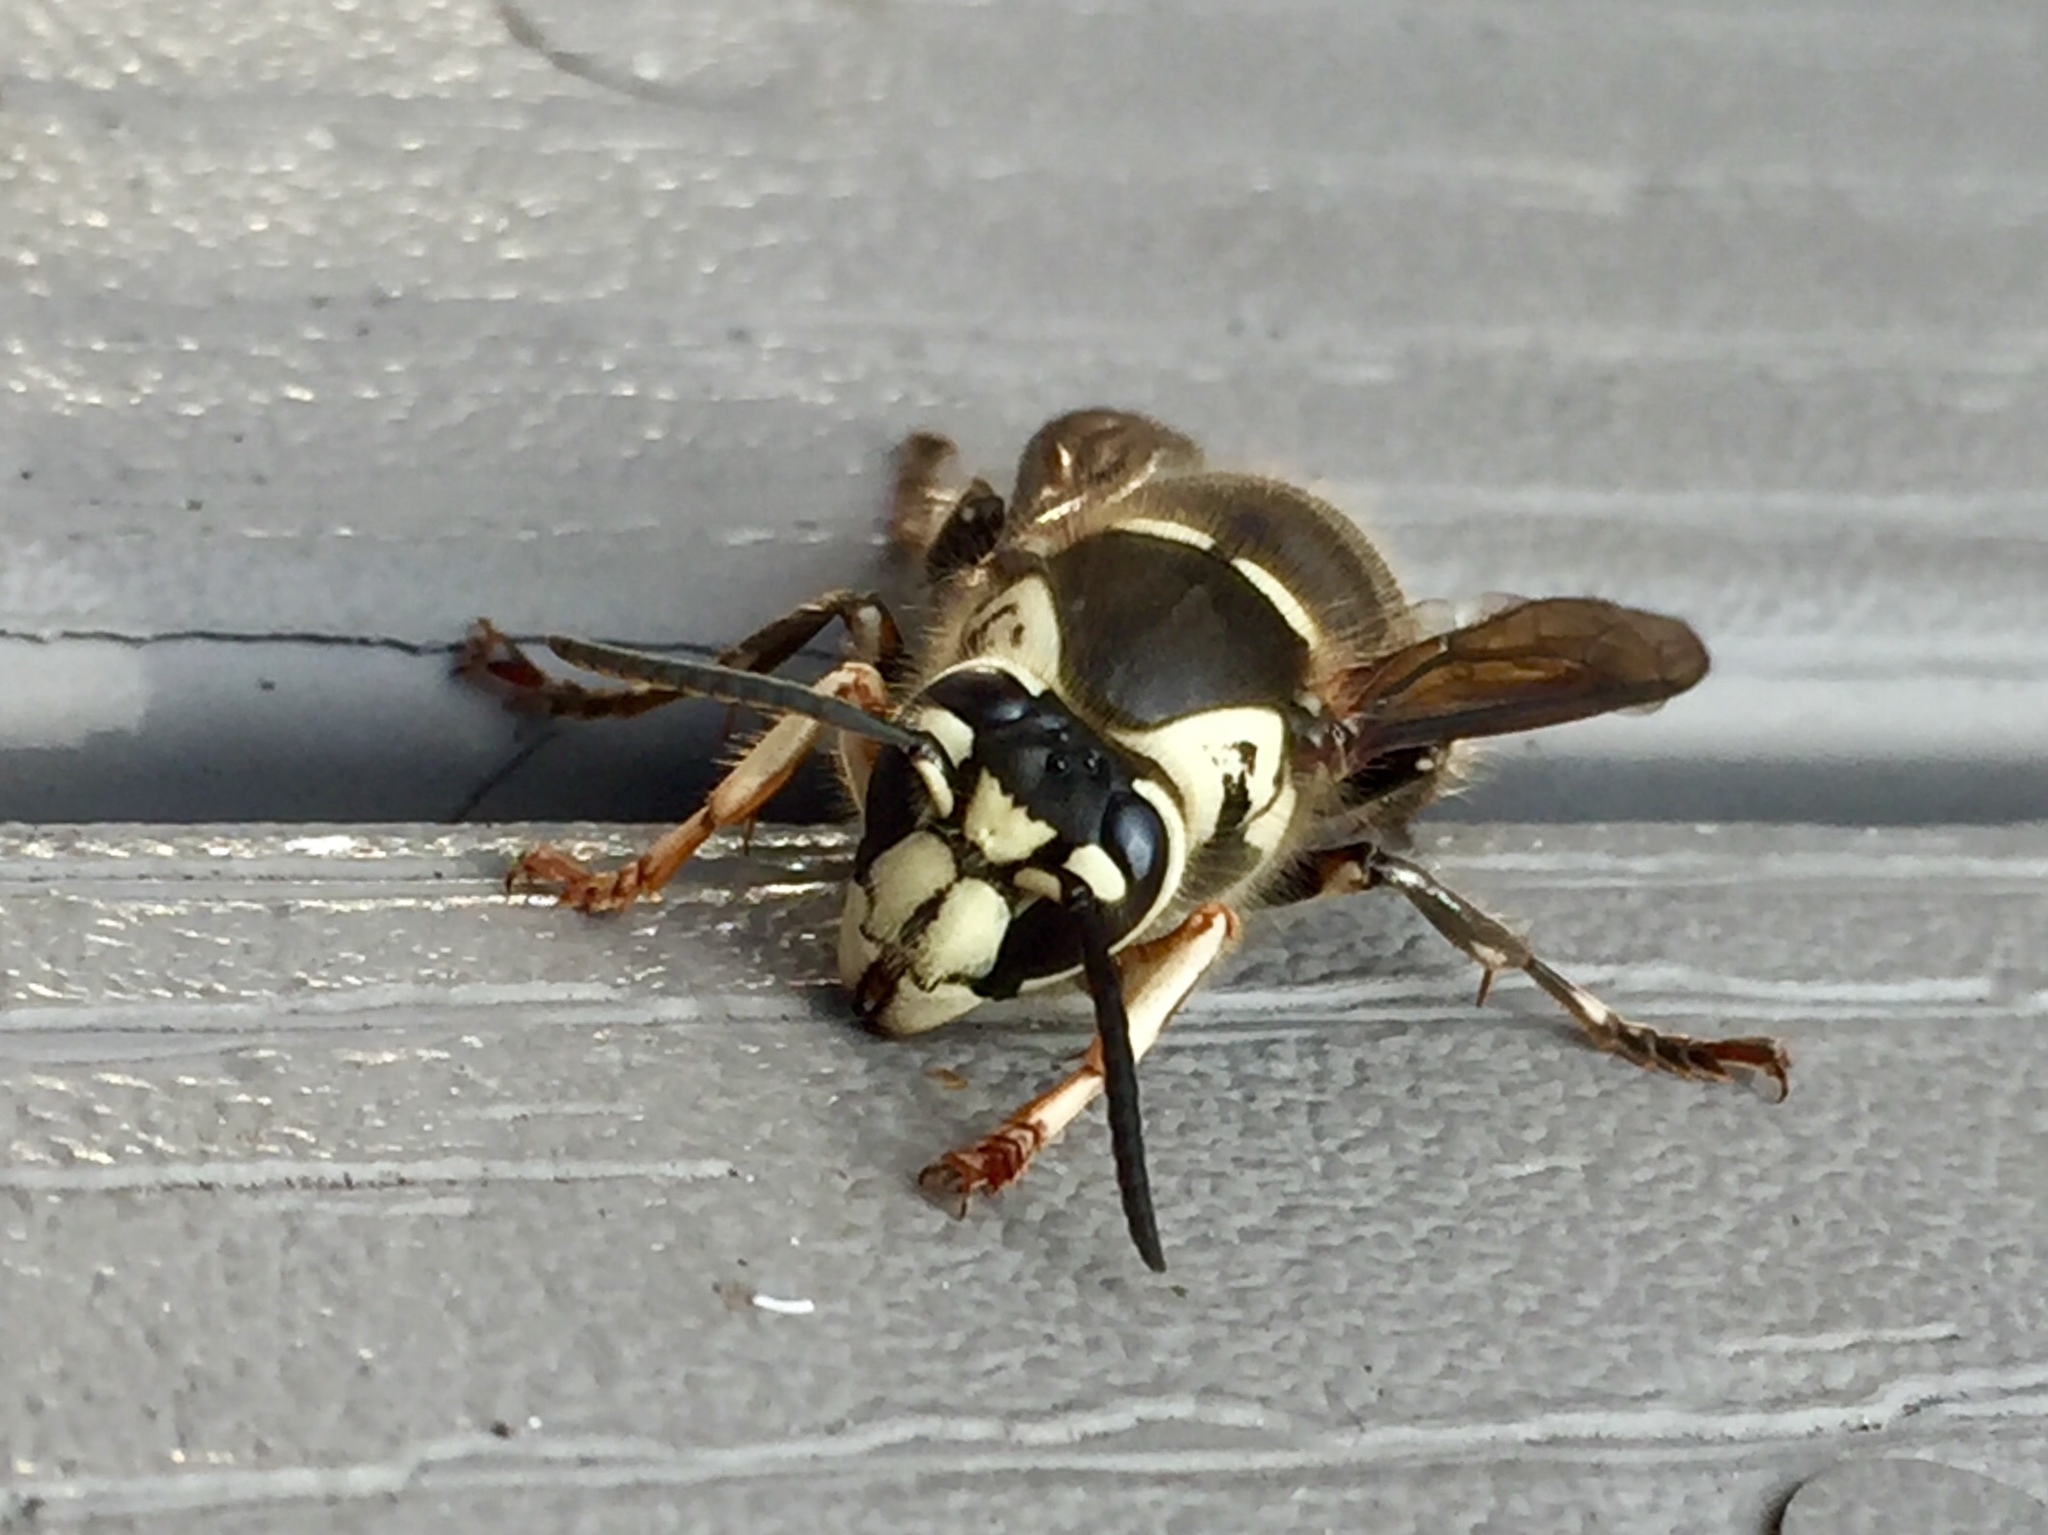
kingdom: Animalia
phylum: Arthropoda
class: Insecta
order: Hymenoptera
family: Vespidae
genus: Dolichovespula
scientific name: Dolichovespula maculata
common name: Bald-faced hornet
